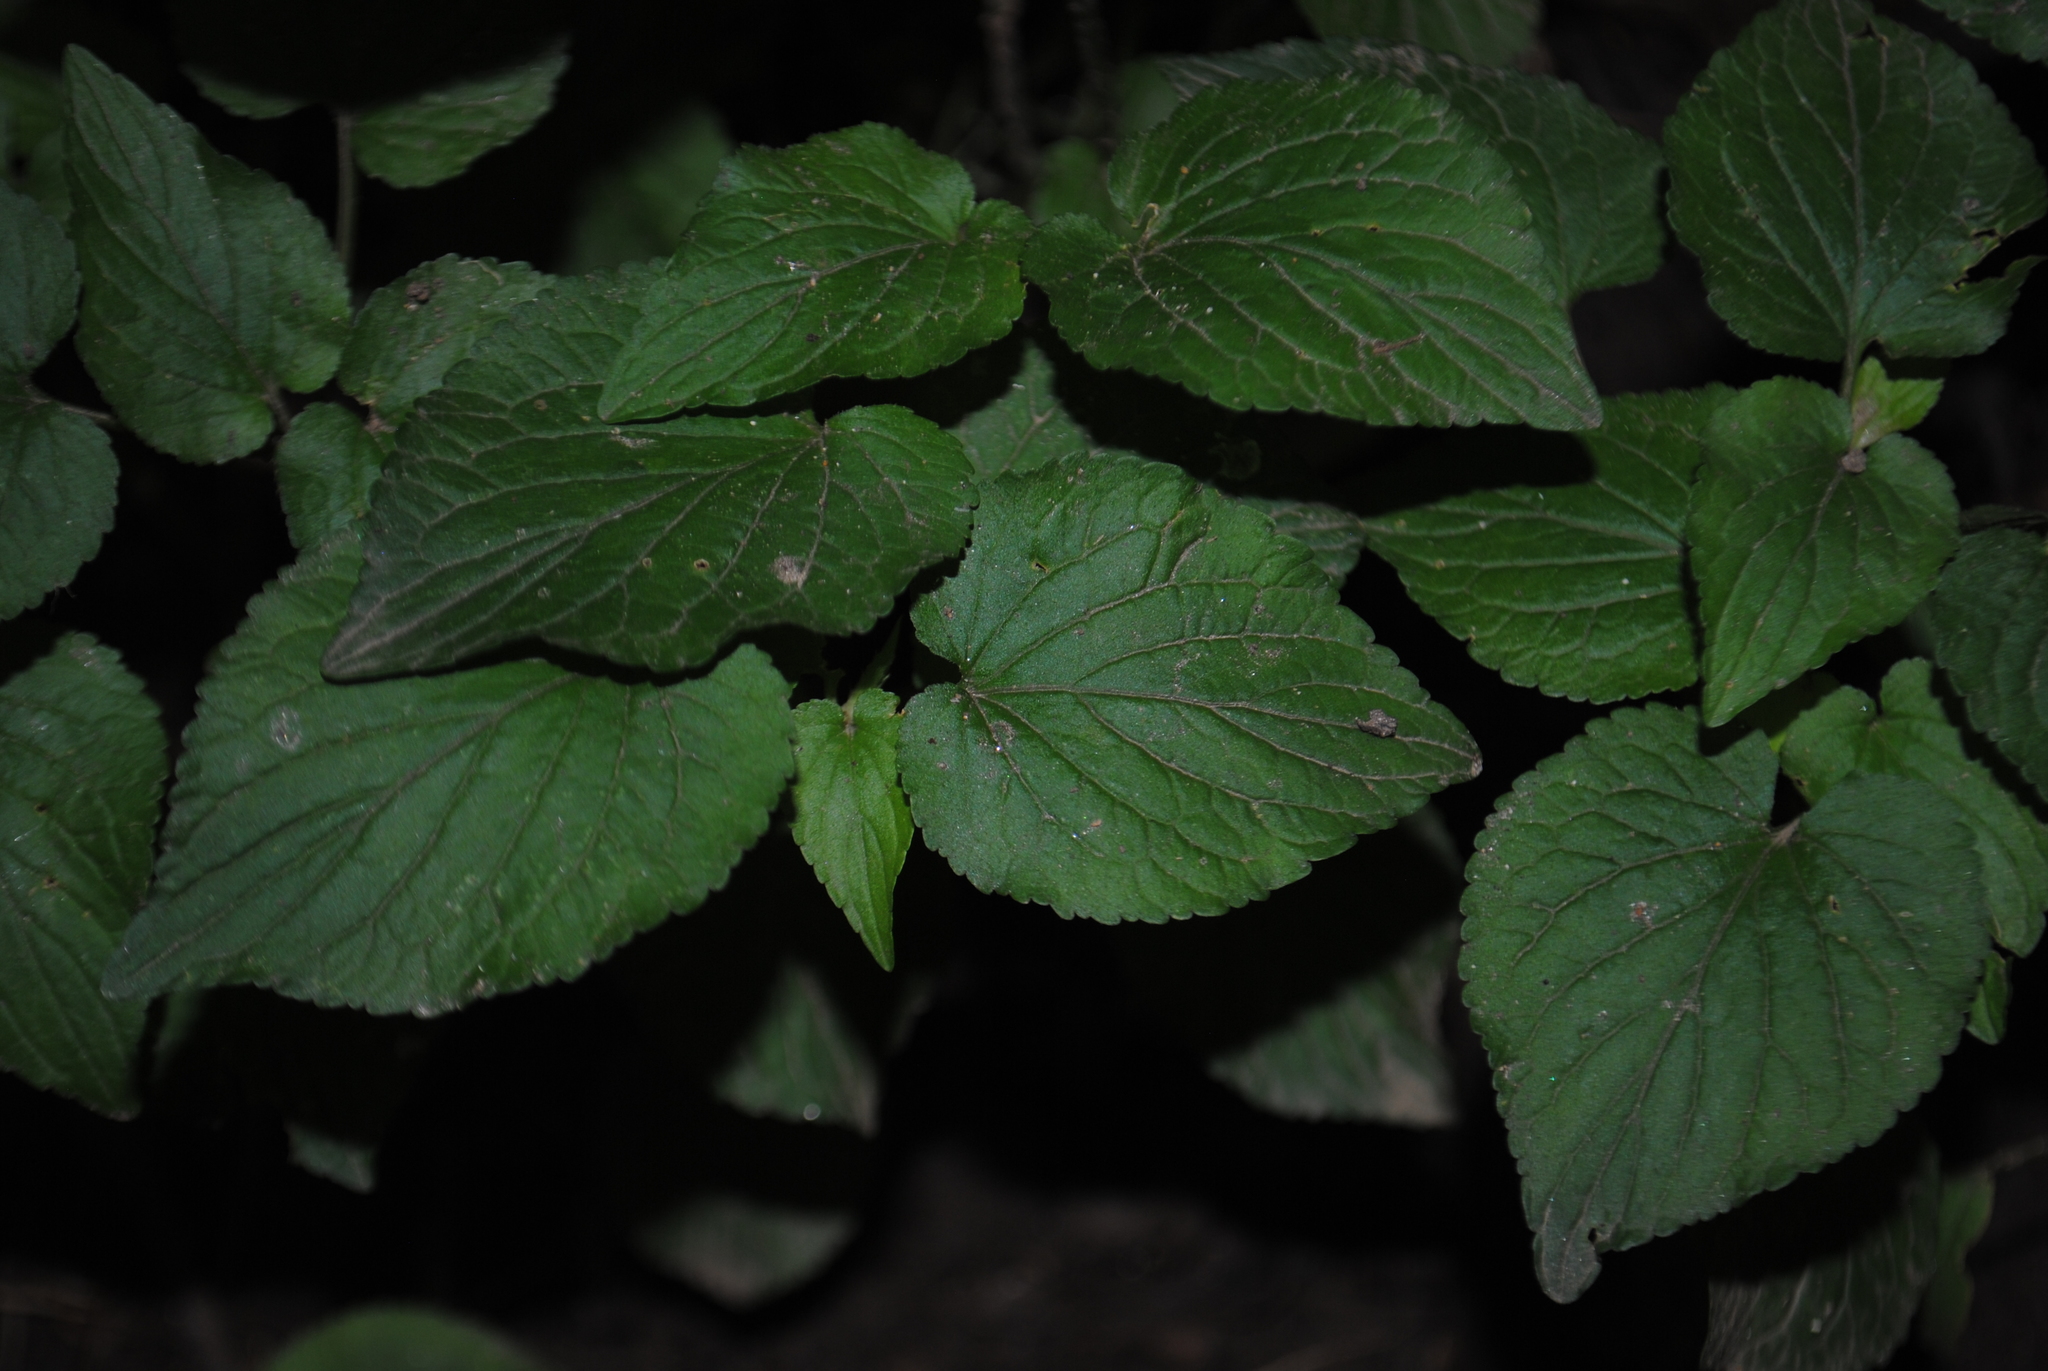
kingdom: Plantae
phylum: Tracheophyta
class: Magnoliopsida
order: Malpighiales
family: Violaceae
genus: Viola
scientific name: Viola striata
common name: Cream violet
